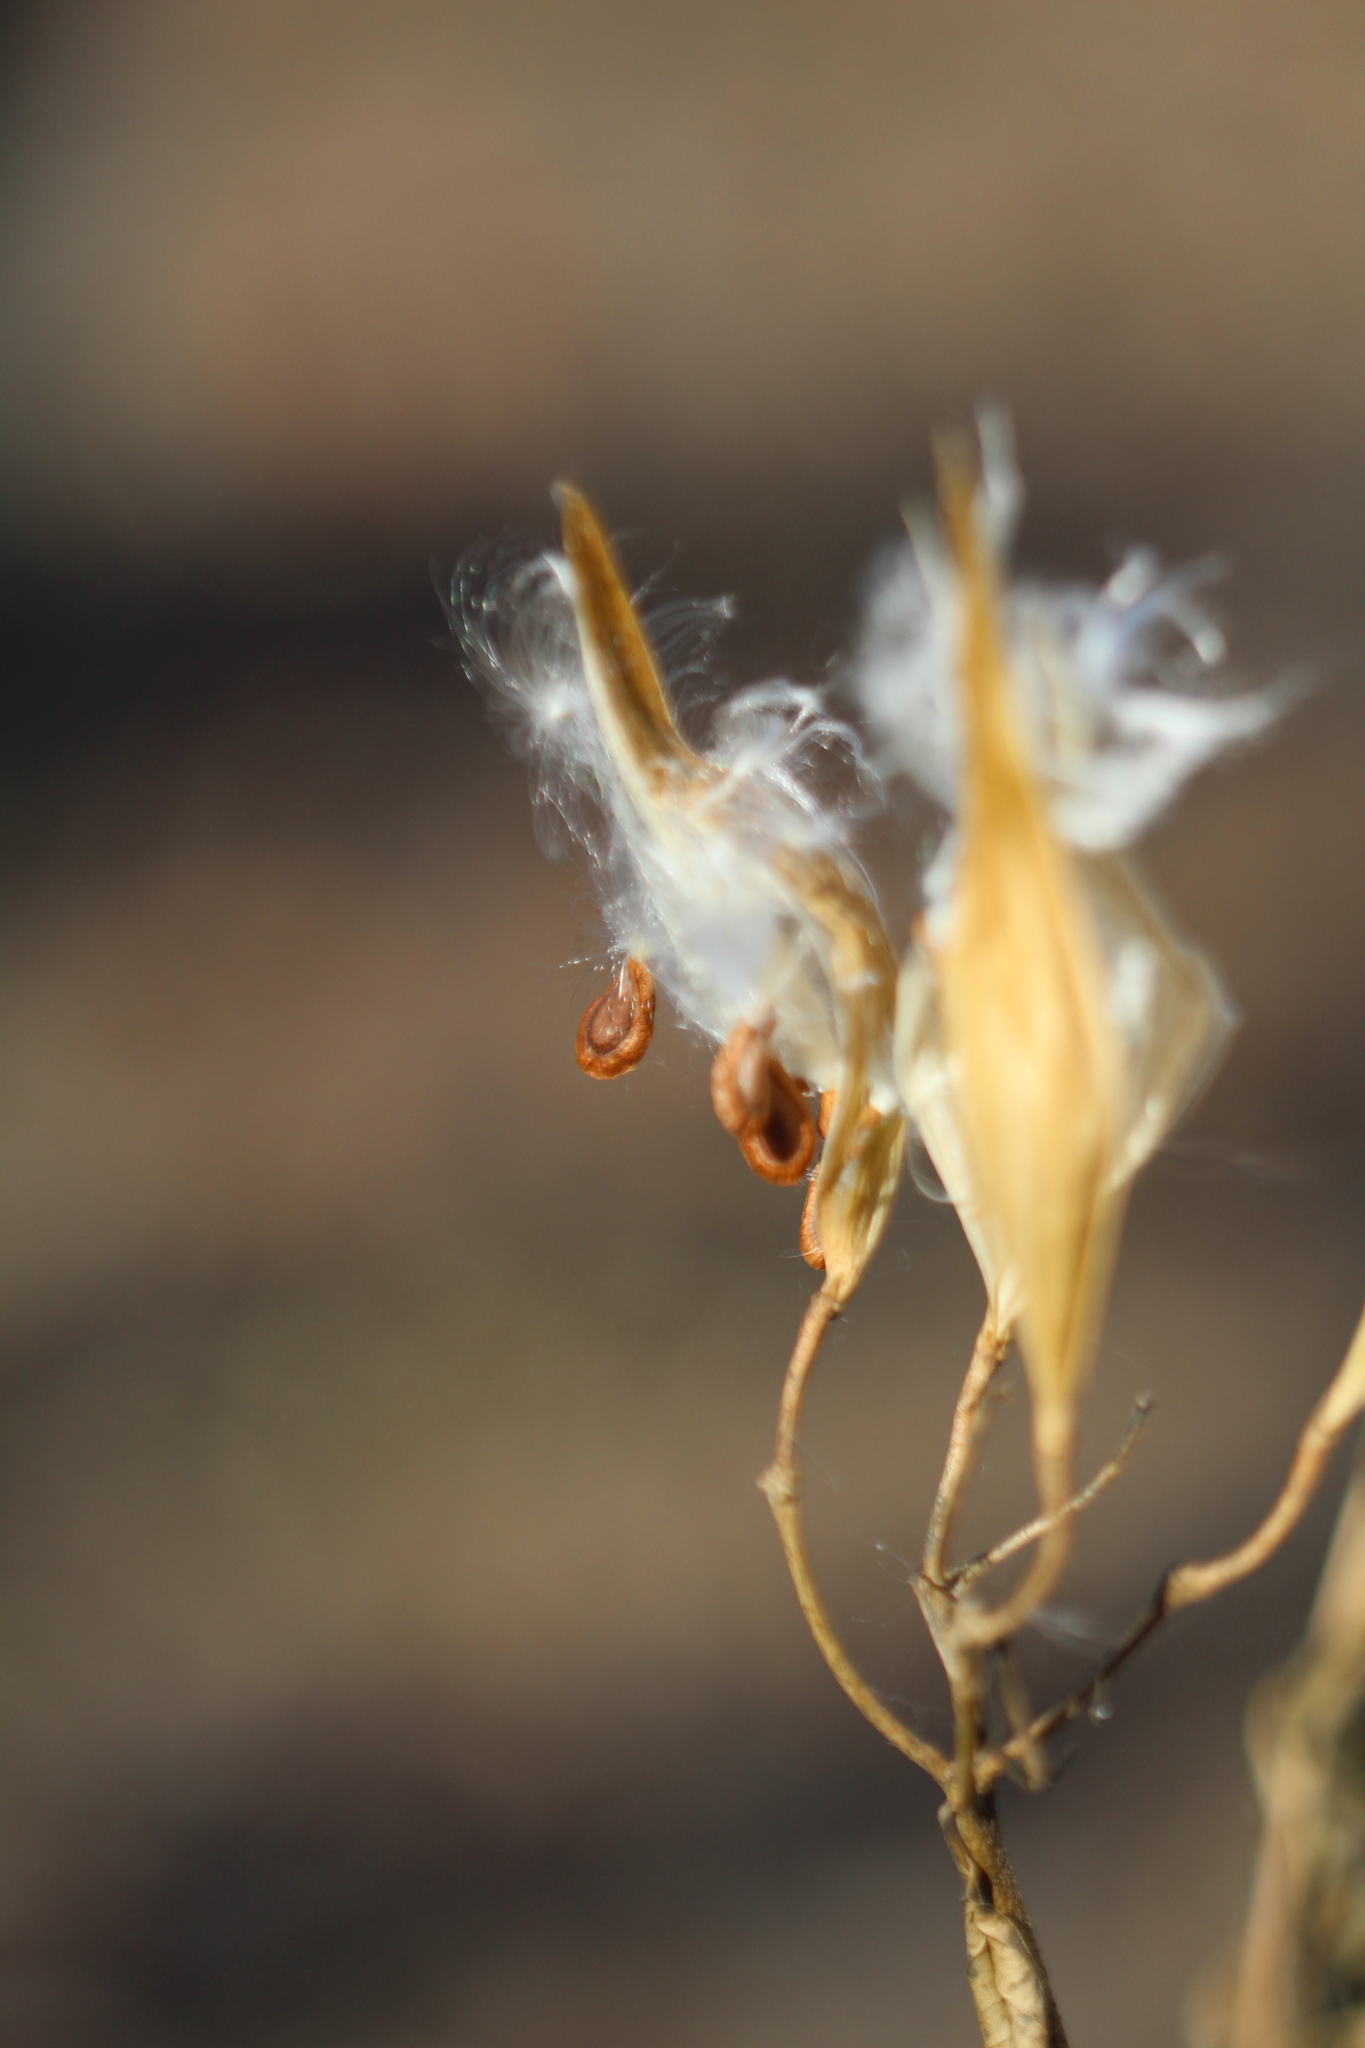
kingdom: Plantae
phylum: Tracheophyta
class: Magnoliopsida
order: Gentianales
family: Apocynaceae
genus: Asclepias
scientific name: Asclepias incarnata
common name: Swamp milkweed
